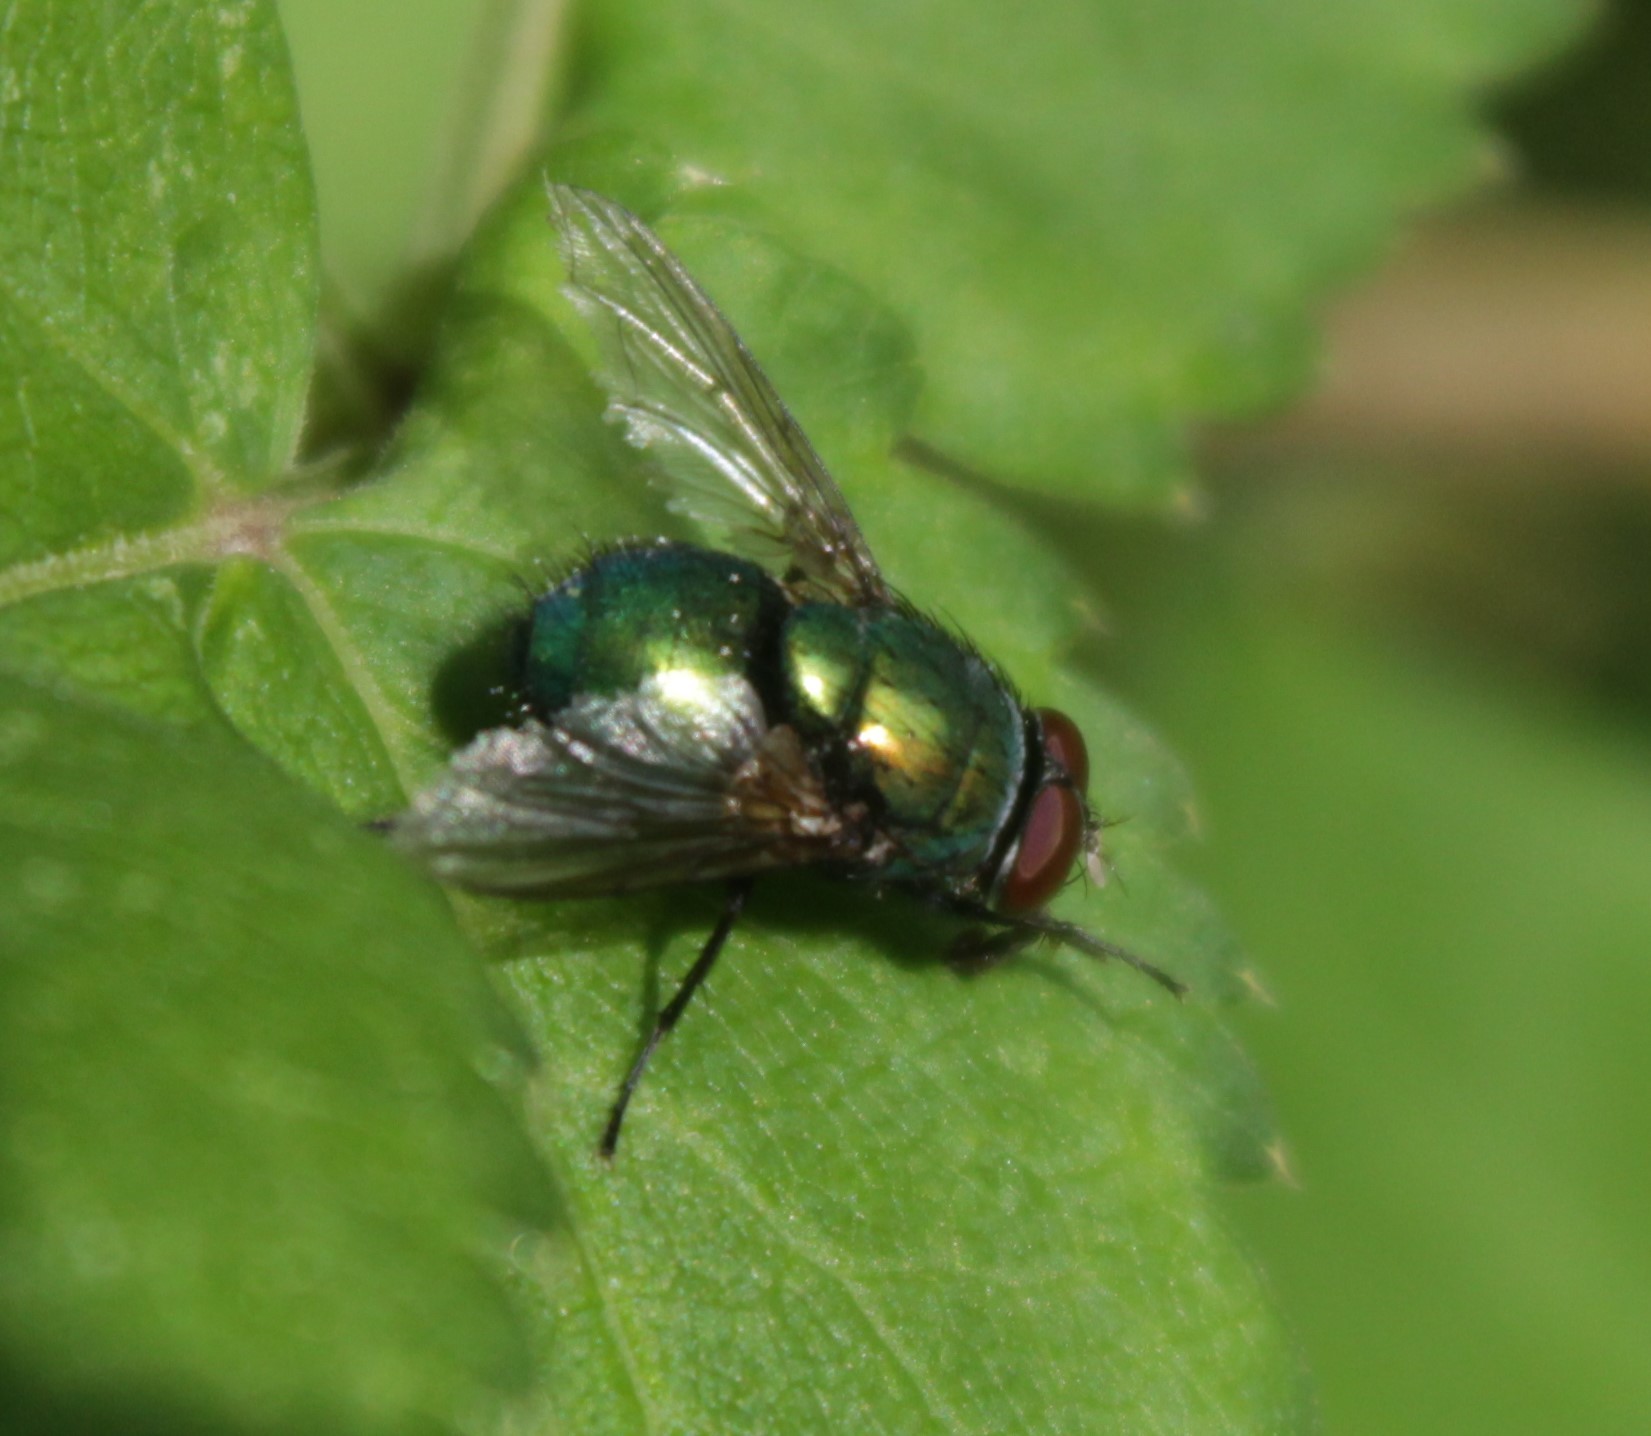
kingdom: Animalia
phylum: Arthropoda
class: Insecta
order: Diptera
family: Calliphoridae
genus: Lucilia
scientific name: Lucilia
